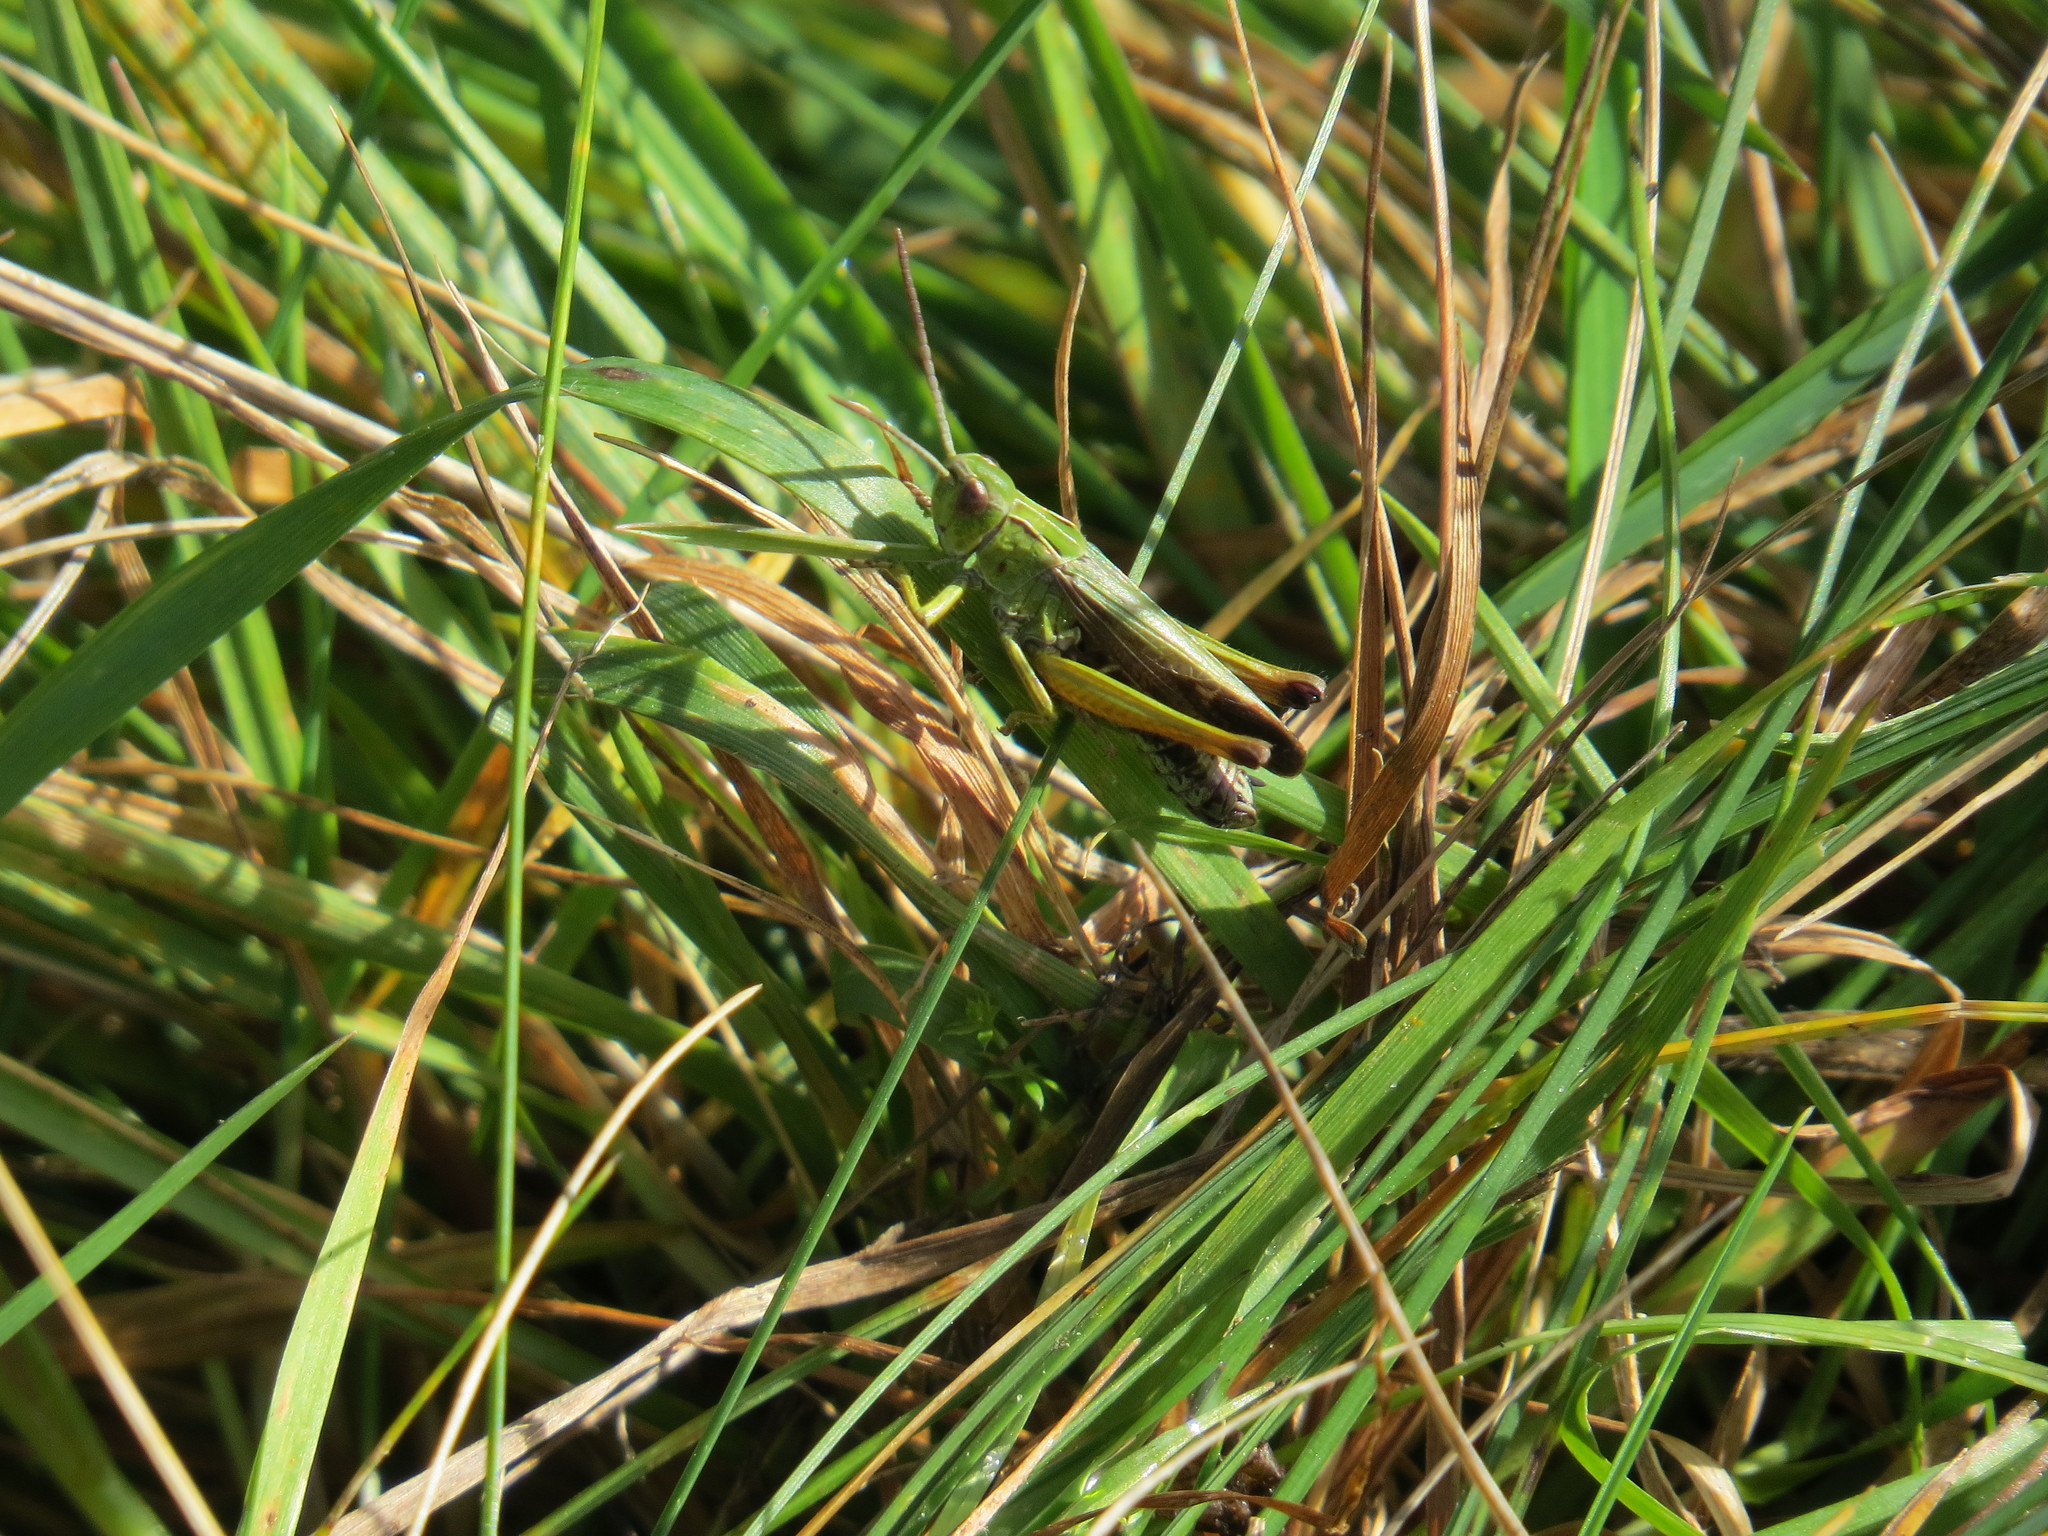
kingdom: Animalia
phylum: Arthropoda
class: Insecta
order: Orthoptera
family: Acrididae
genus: Omocestus
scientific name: Omocestus viridulus
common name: Common green grasshopper
